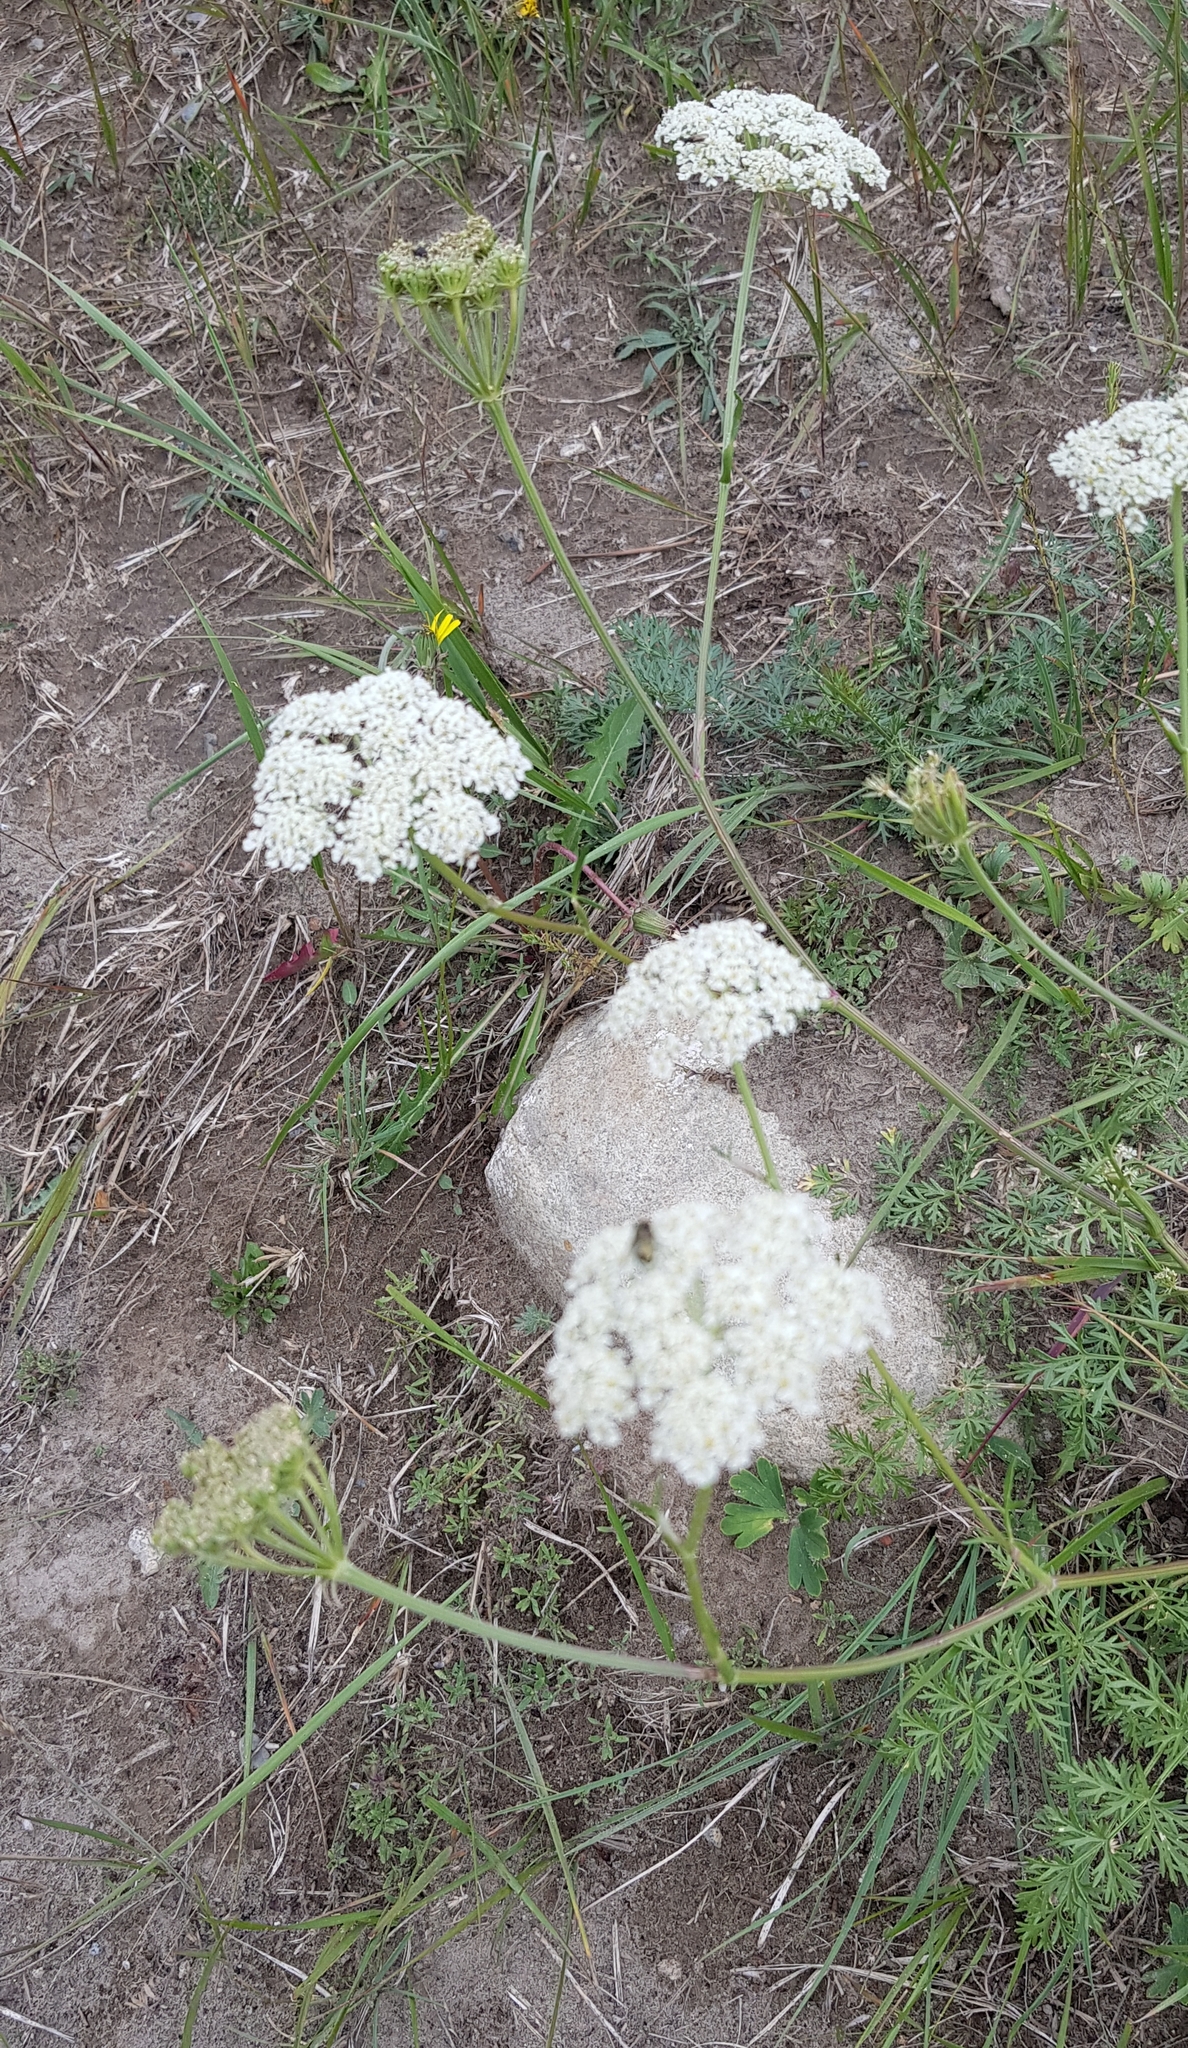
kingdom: Plantae
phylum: Tracheophyta
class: Magnoliopsida
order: Apiales
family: Apiaceae
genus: Kitagawia
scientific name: Kitagawia baicalensis
